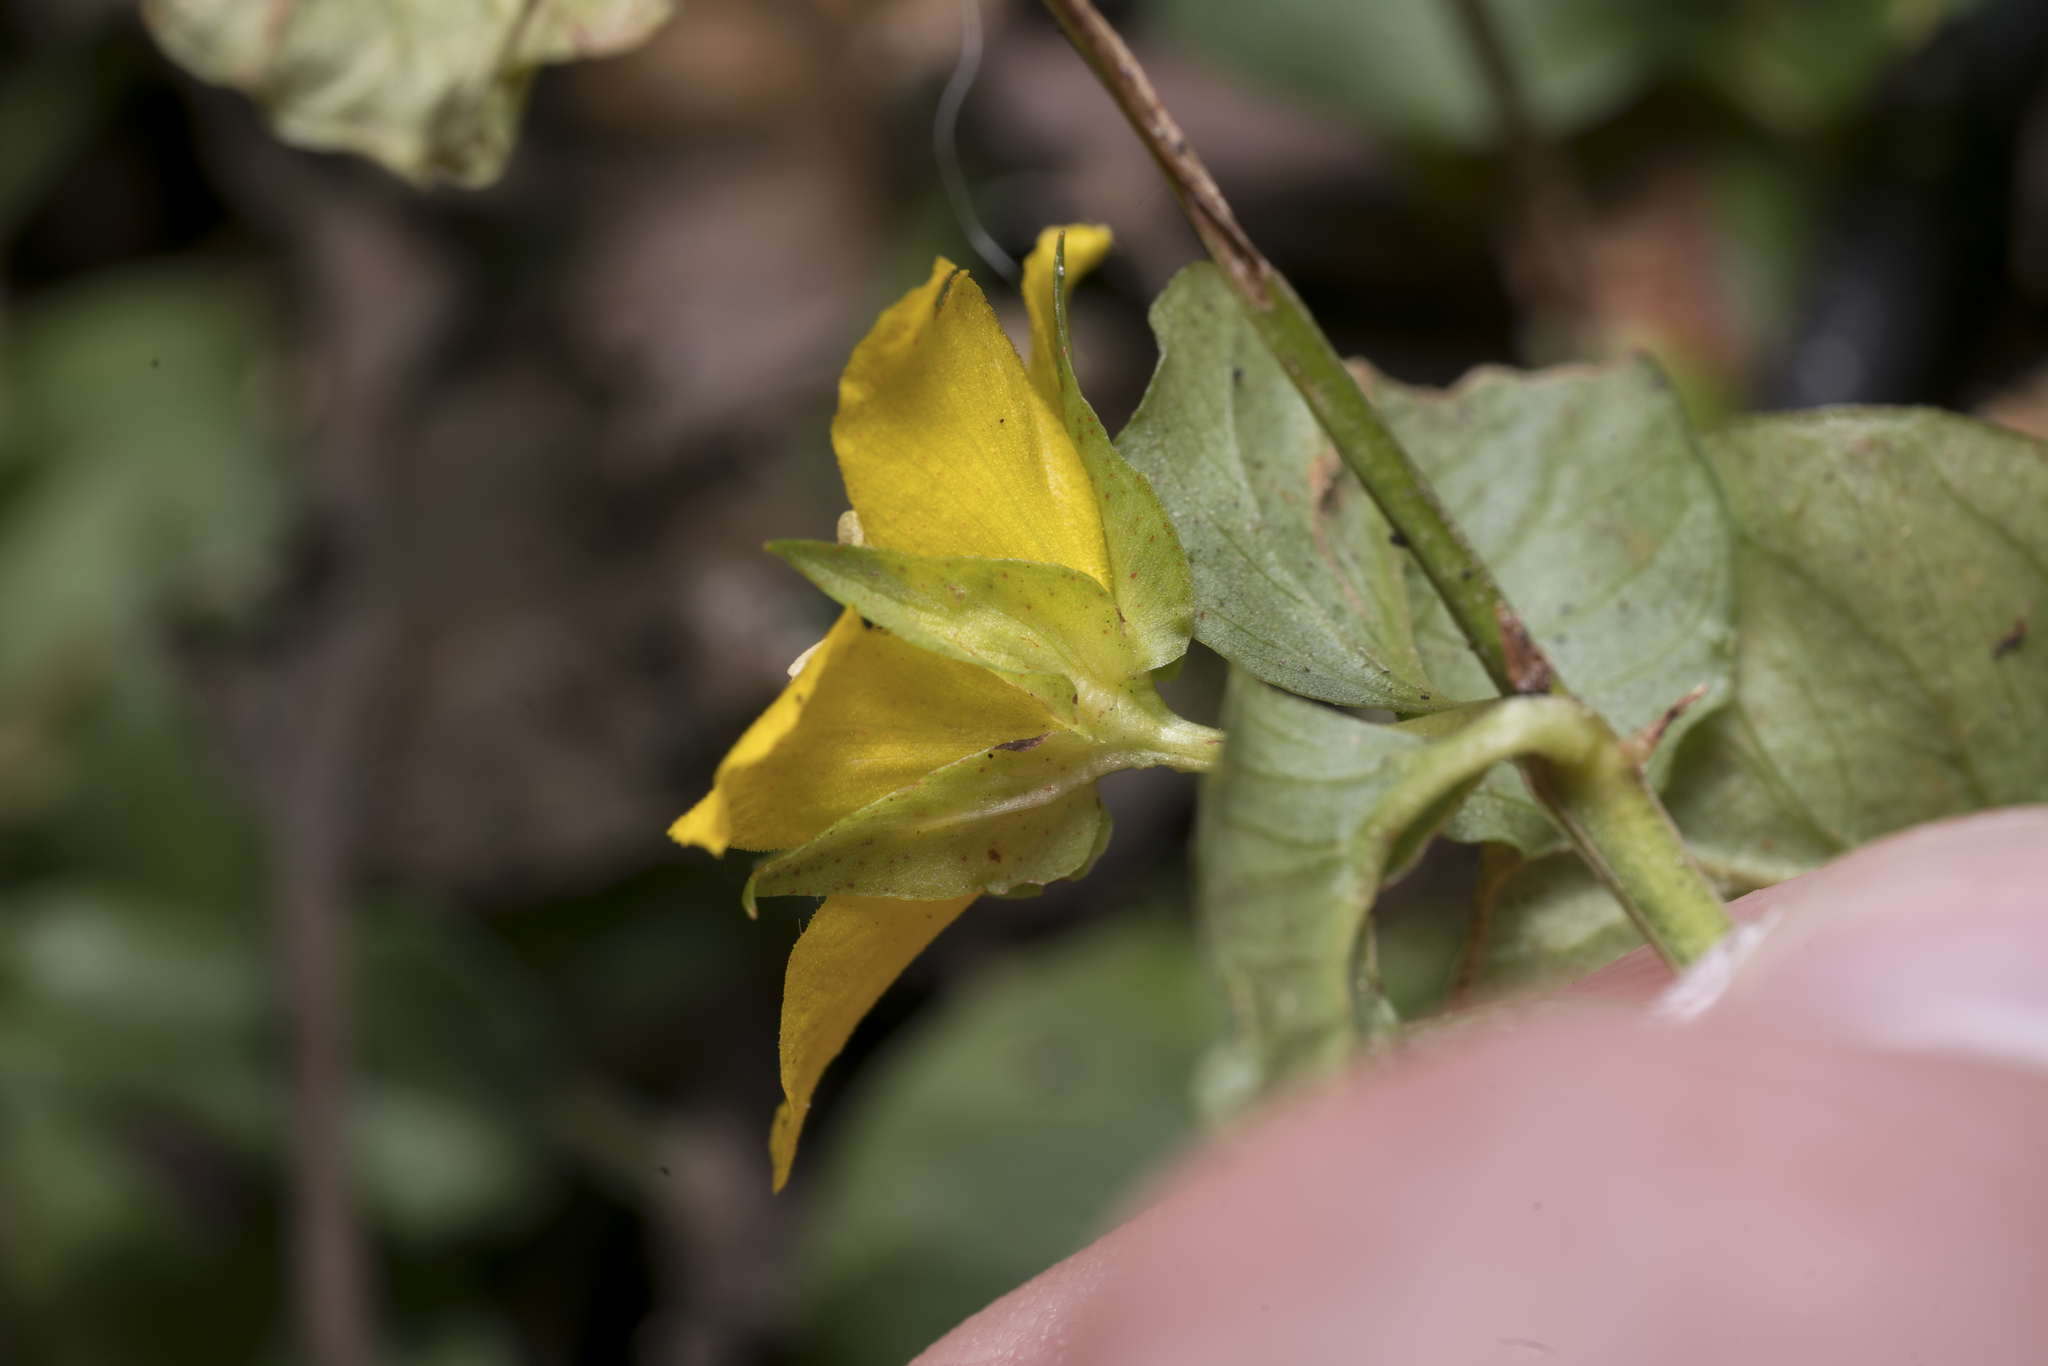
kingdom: Plantae
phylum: Tracheophyta
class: Magnoliopsida
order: Ericales
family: Primulaceae
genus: Lysimachia
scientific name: Lysimachia nummularia
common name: Moneywort
